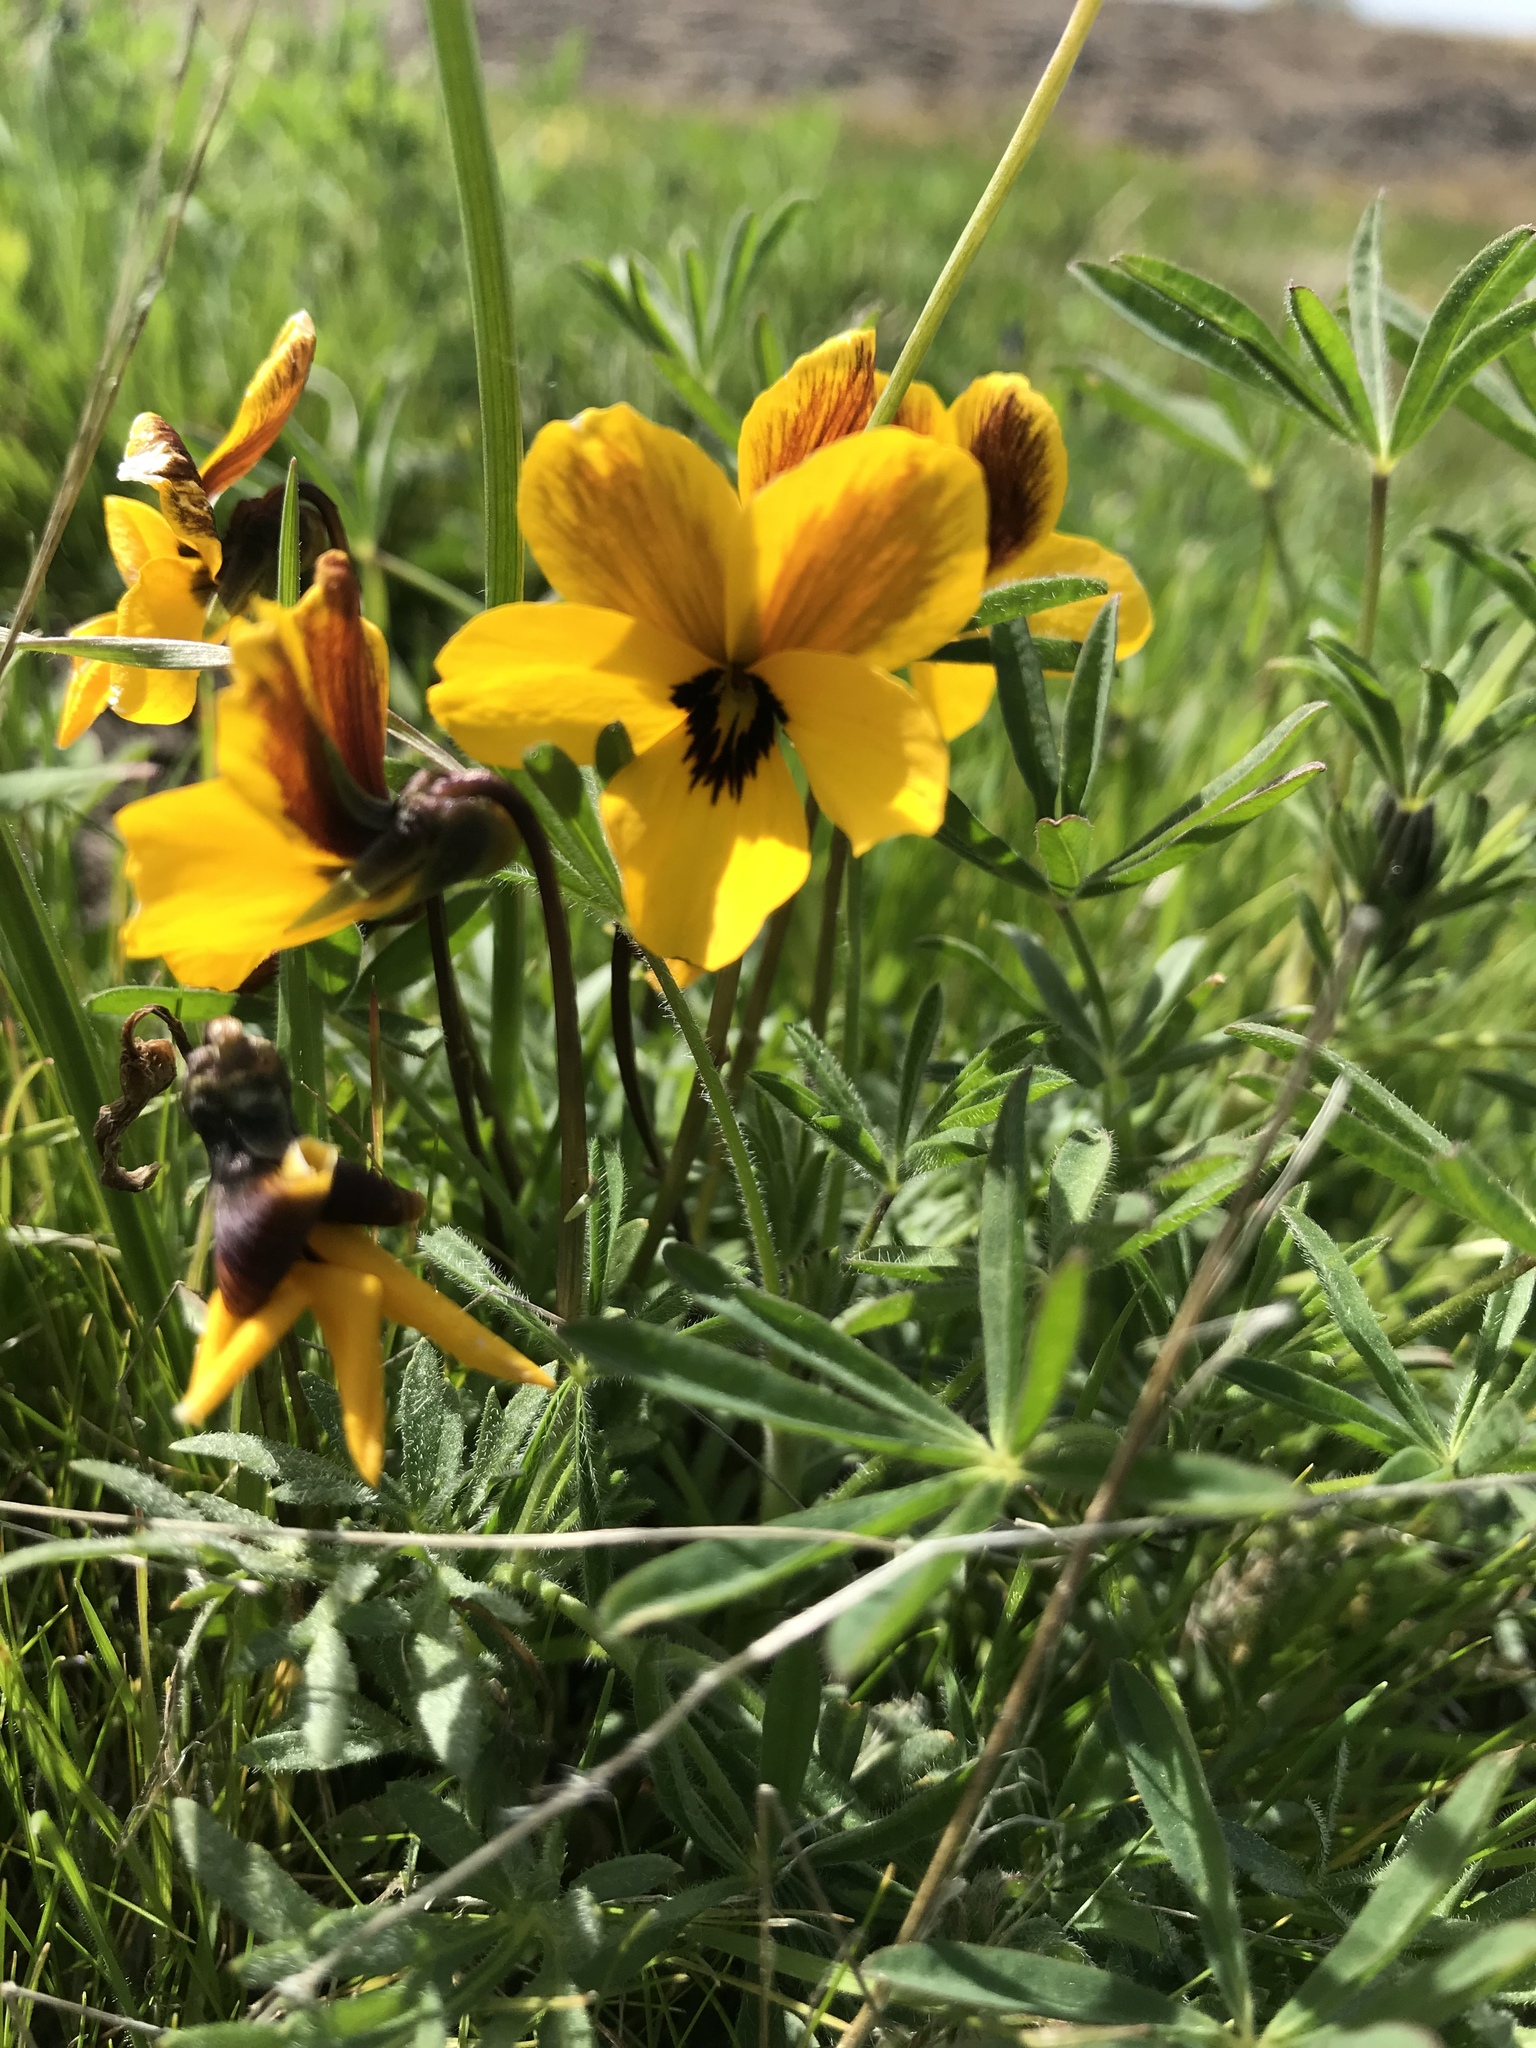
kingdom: Plantae
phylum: Tracheophyta
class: Magnoliopsida
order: Malpighiales
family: Violaceae
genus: Viola
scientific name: Viola douglasii
